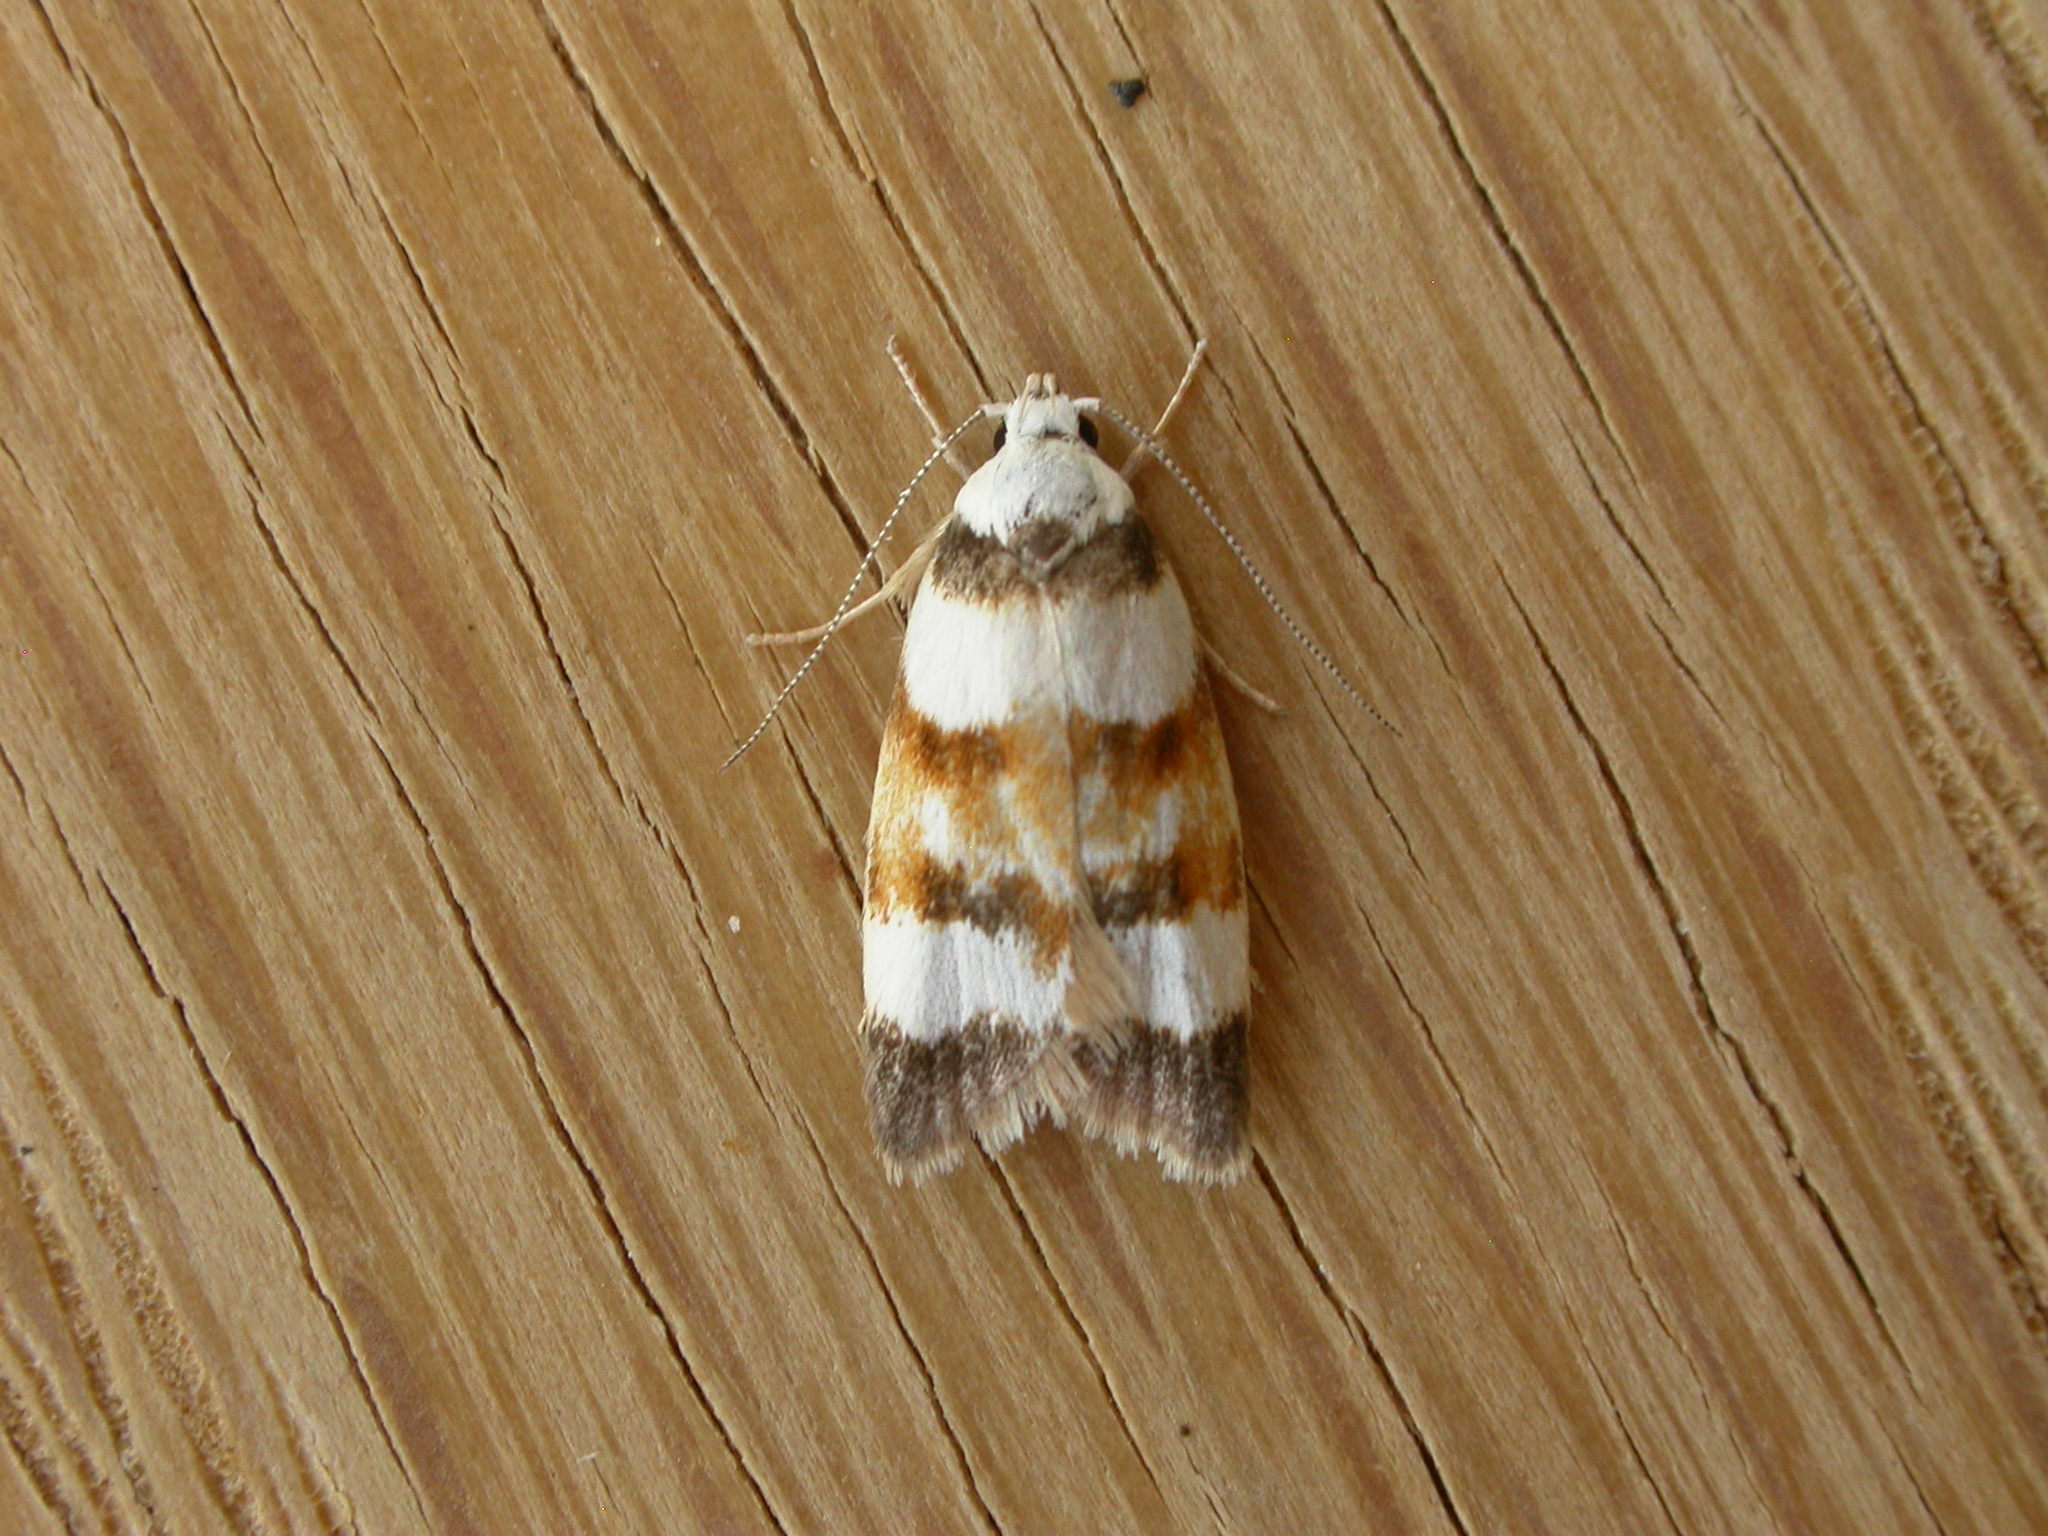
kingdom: Animalia
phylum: Arthropoda
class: Insecta
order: Lepidoptera
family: Oecophoridae
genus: Catacometes
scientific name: Catacometes phanozona
